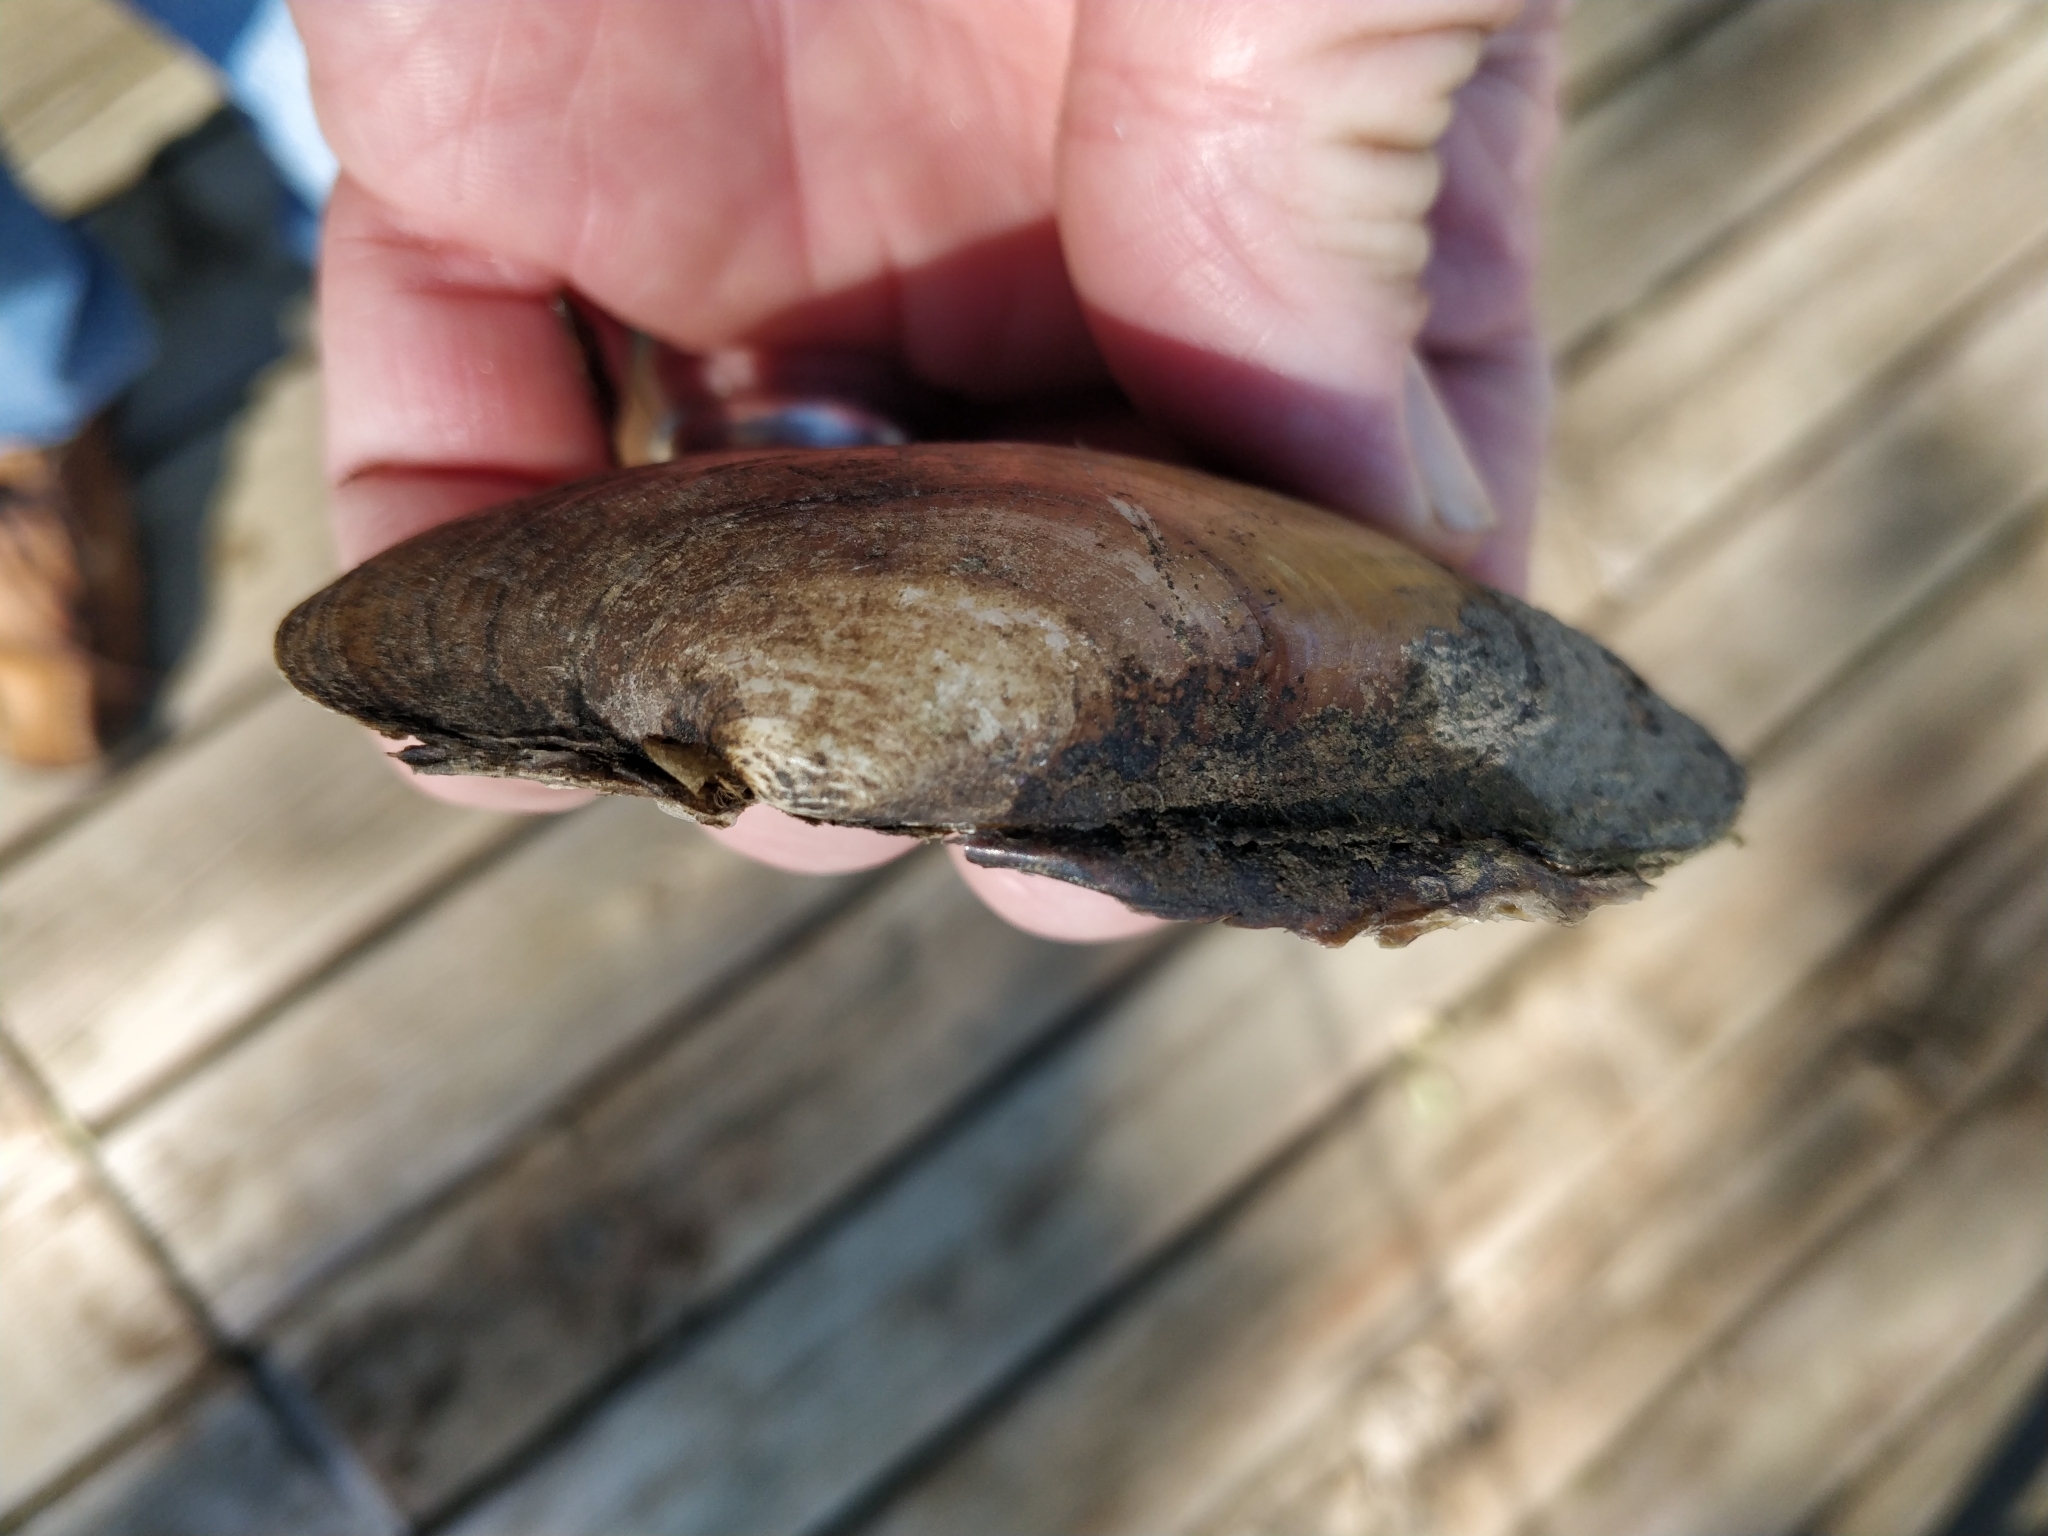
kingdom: Animalia
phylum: Mollusca
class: Bivalvia
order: Unionida
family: Unionidae
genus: Lampsilis
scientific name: Lampsilis siliquoidea
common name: Fatmucket
